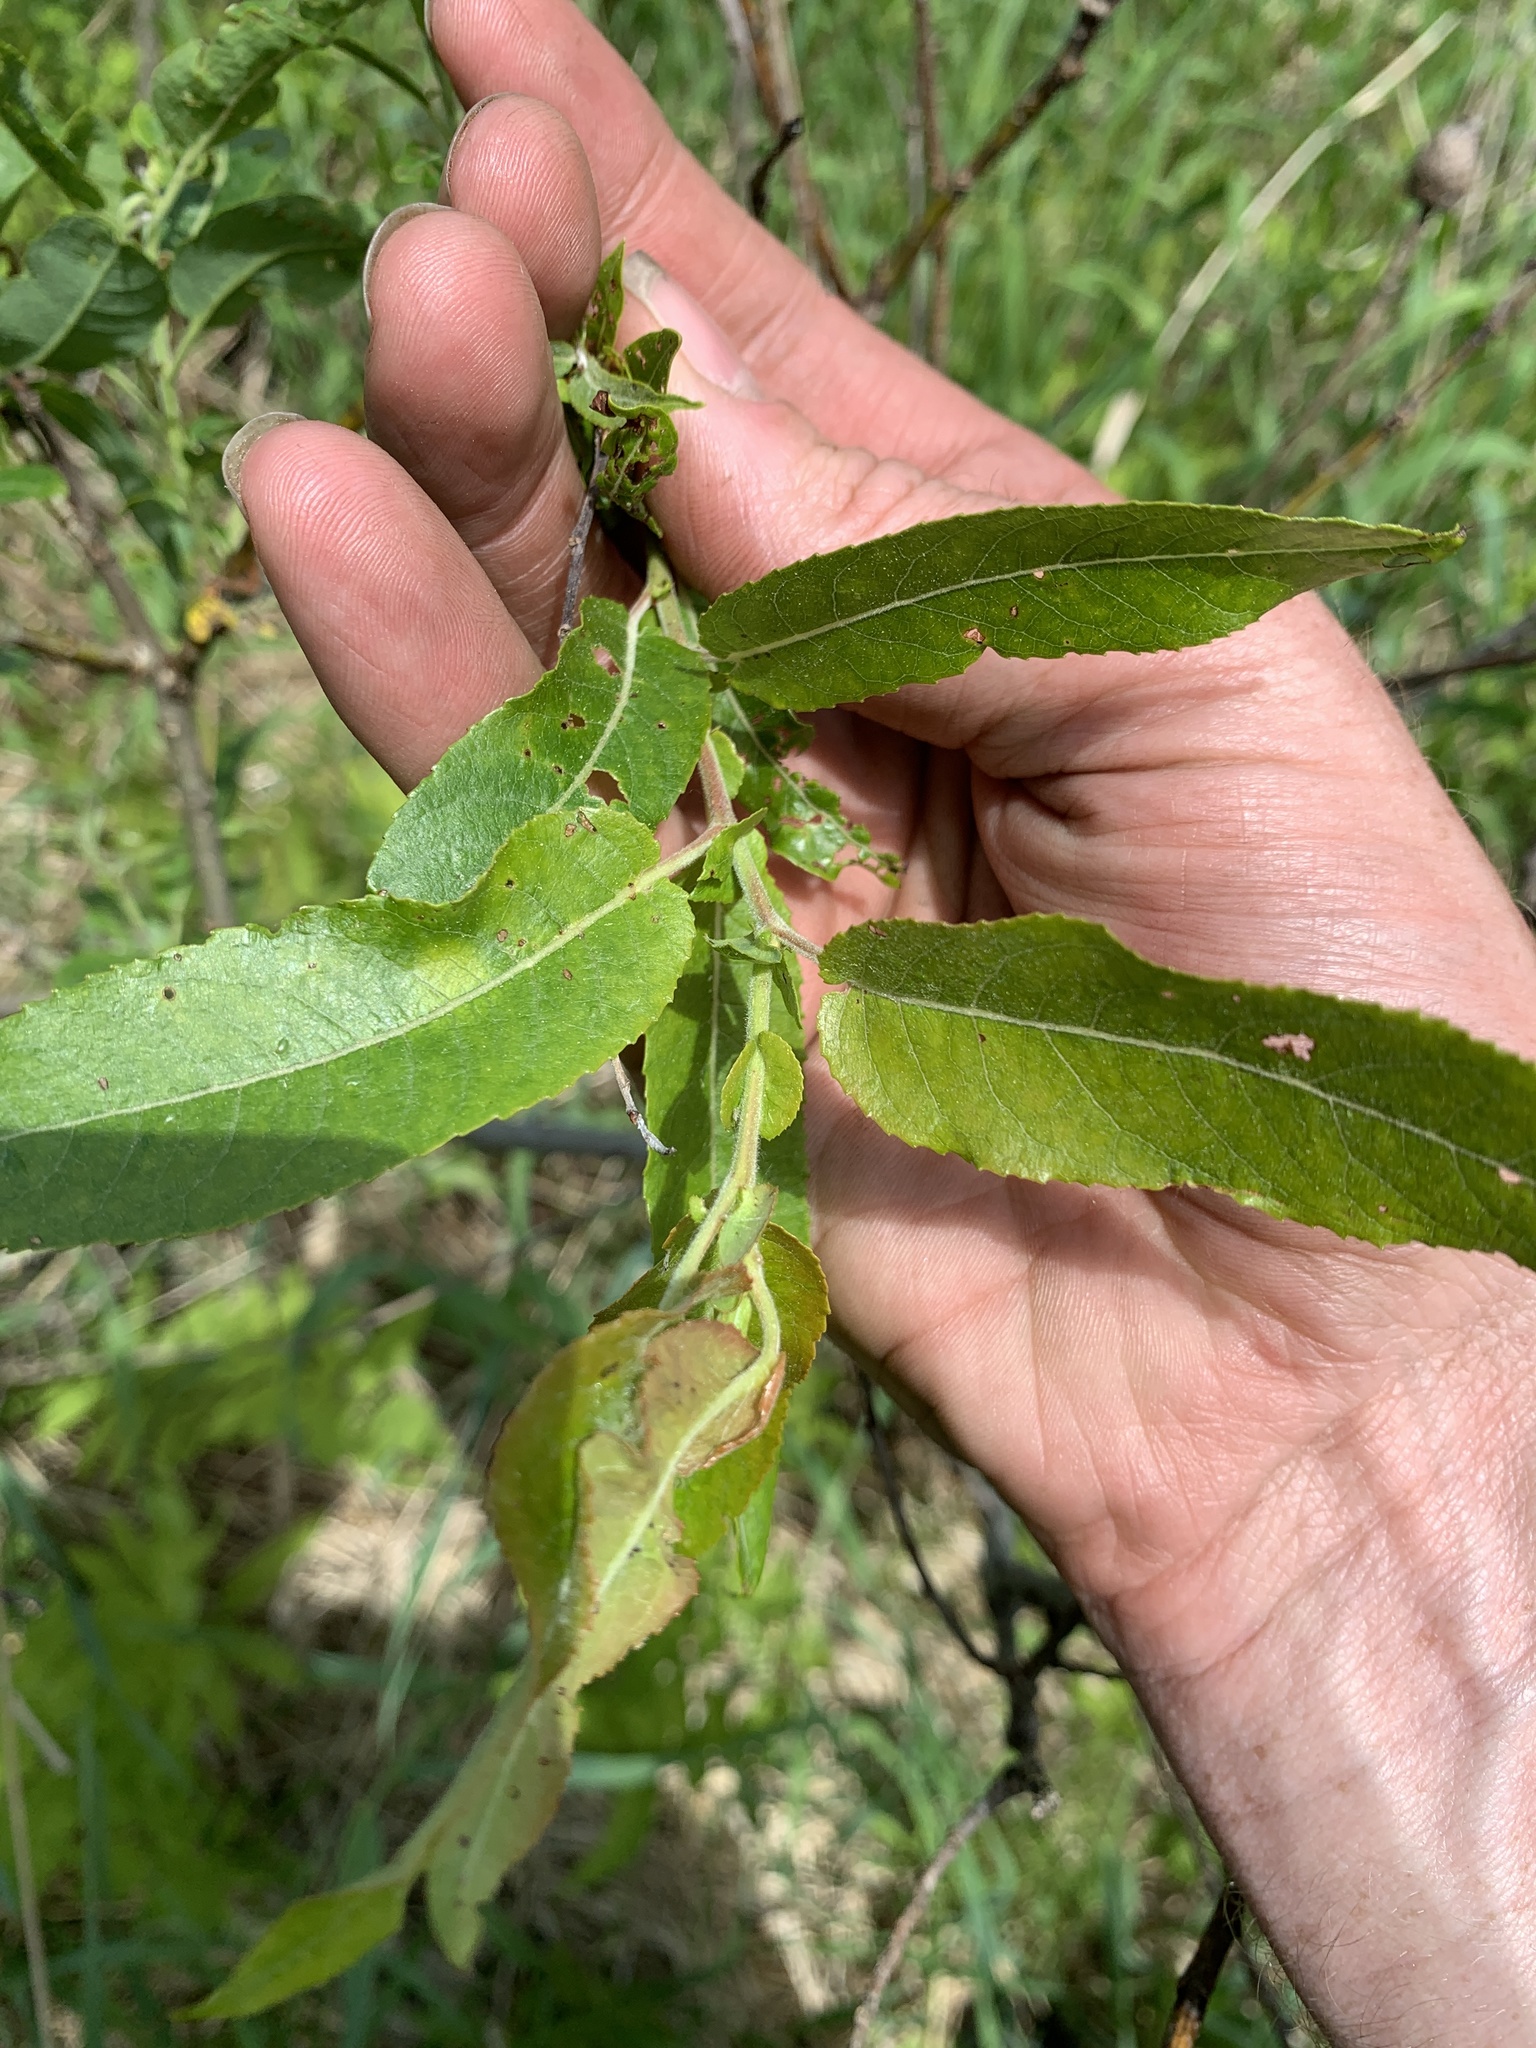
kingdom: Plantae
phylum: Tracheophyta
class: Magnoliopsida
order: Malpighiales
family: Salicaceae
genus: Salix
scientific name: Salix eriocephala
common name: Heart-leaved willow
